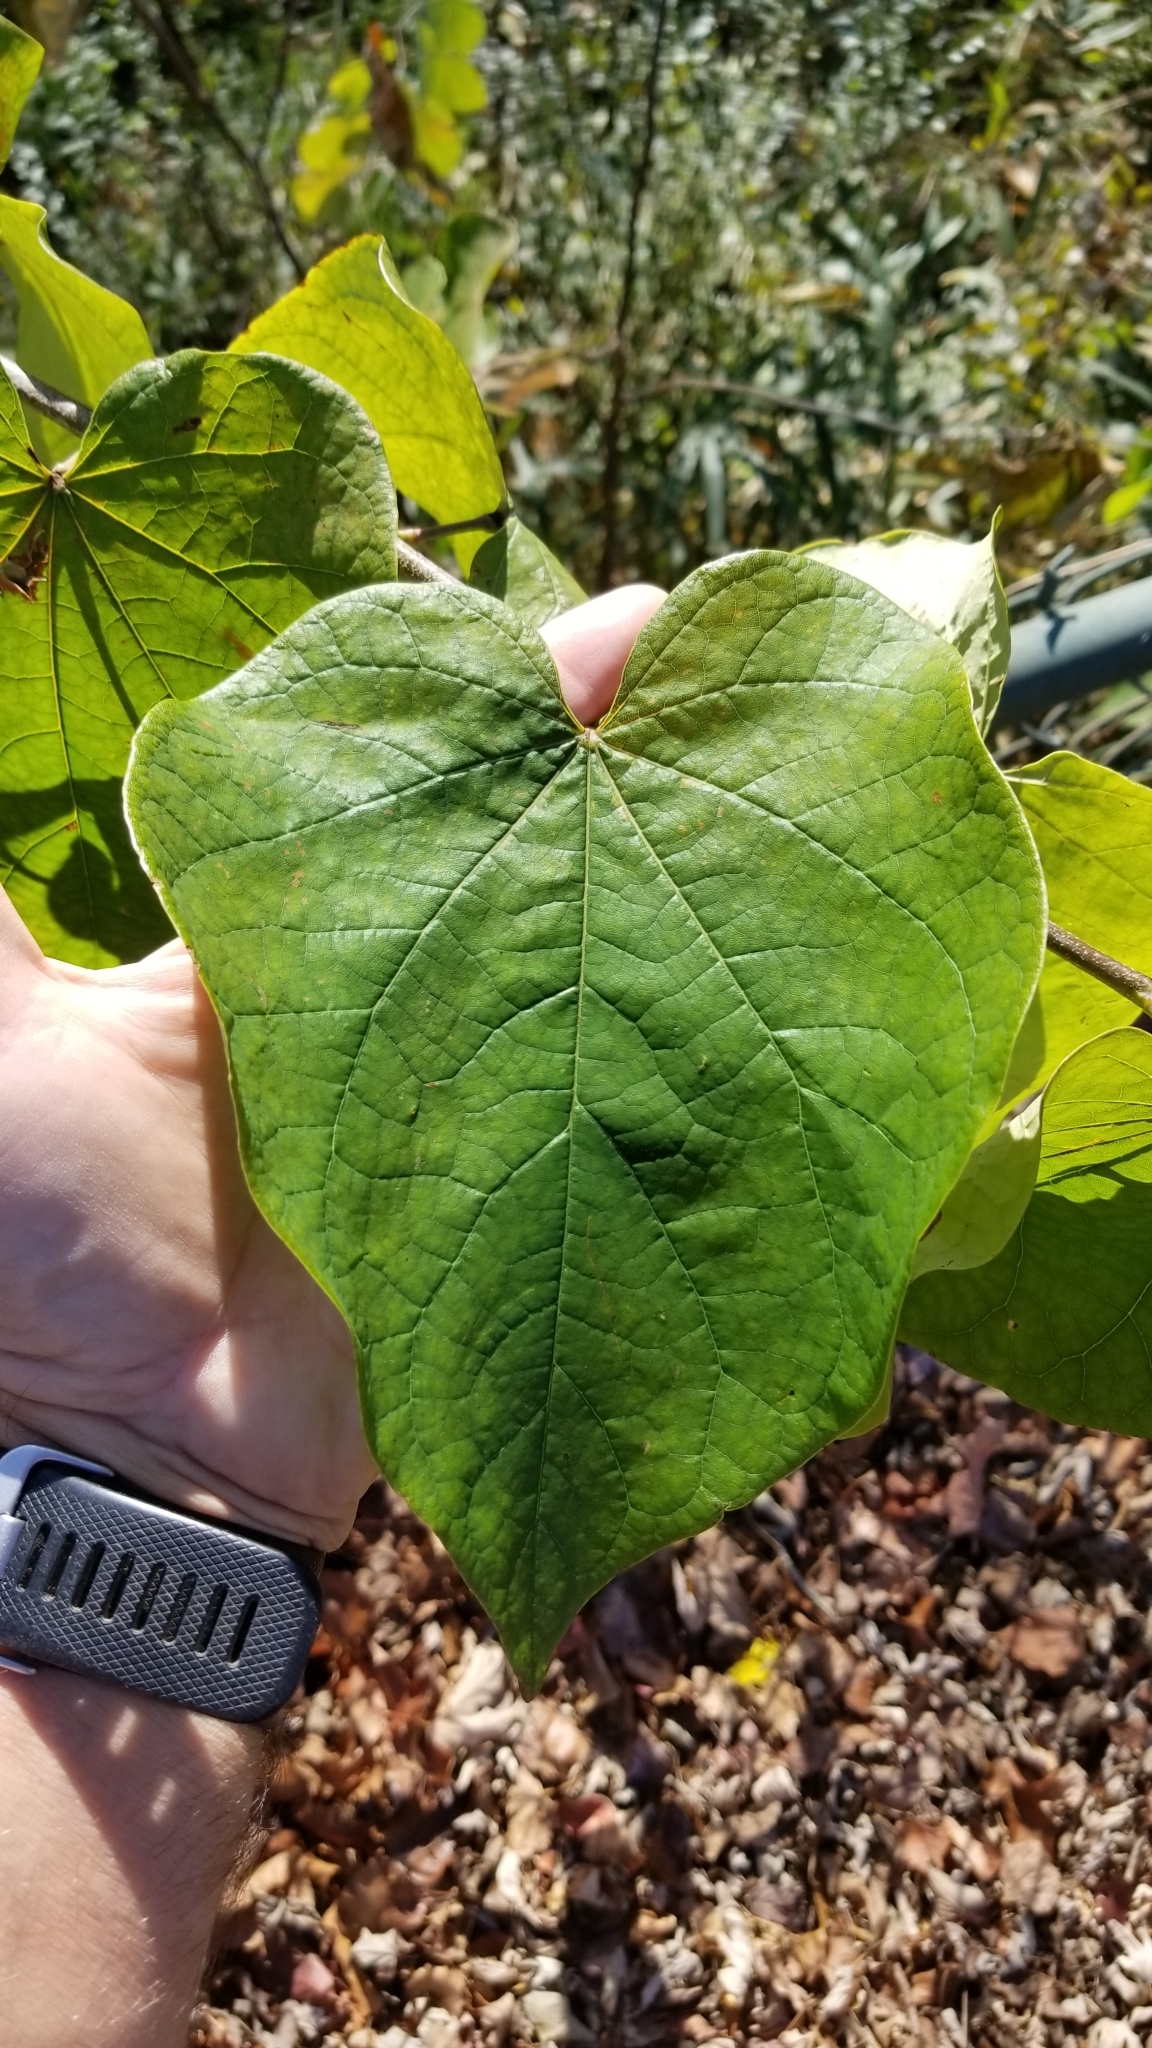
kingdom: Plantae
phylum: Tracheophyta
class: Magnoliopsida
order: Fabales
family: Fabaceae
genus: Cercis
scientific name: Cercis canadensis
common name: Eastern redbud
